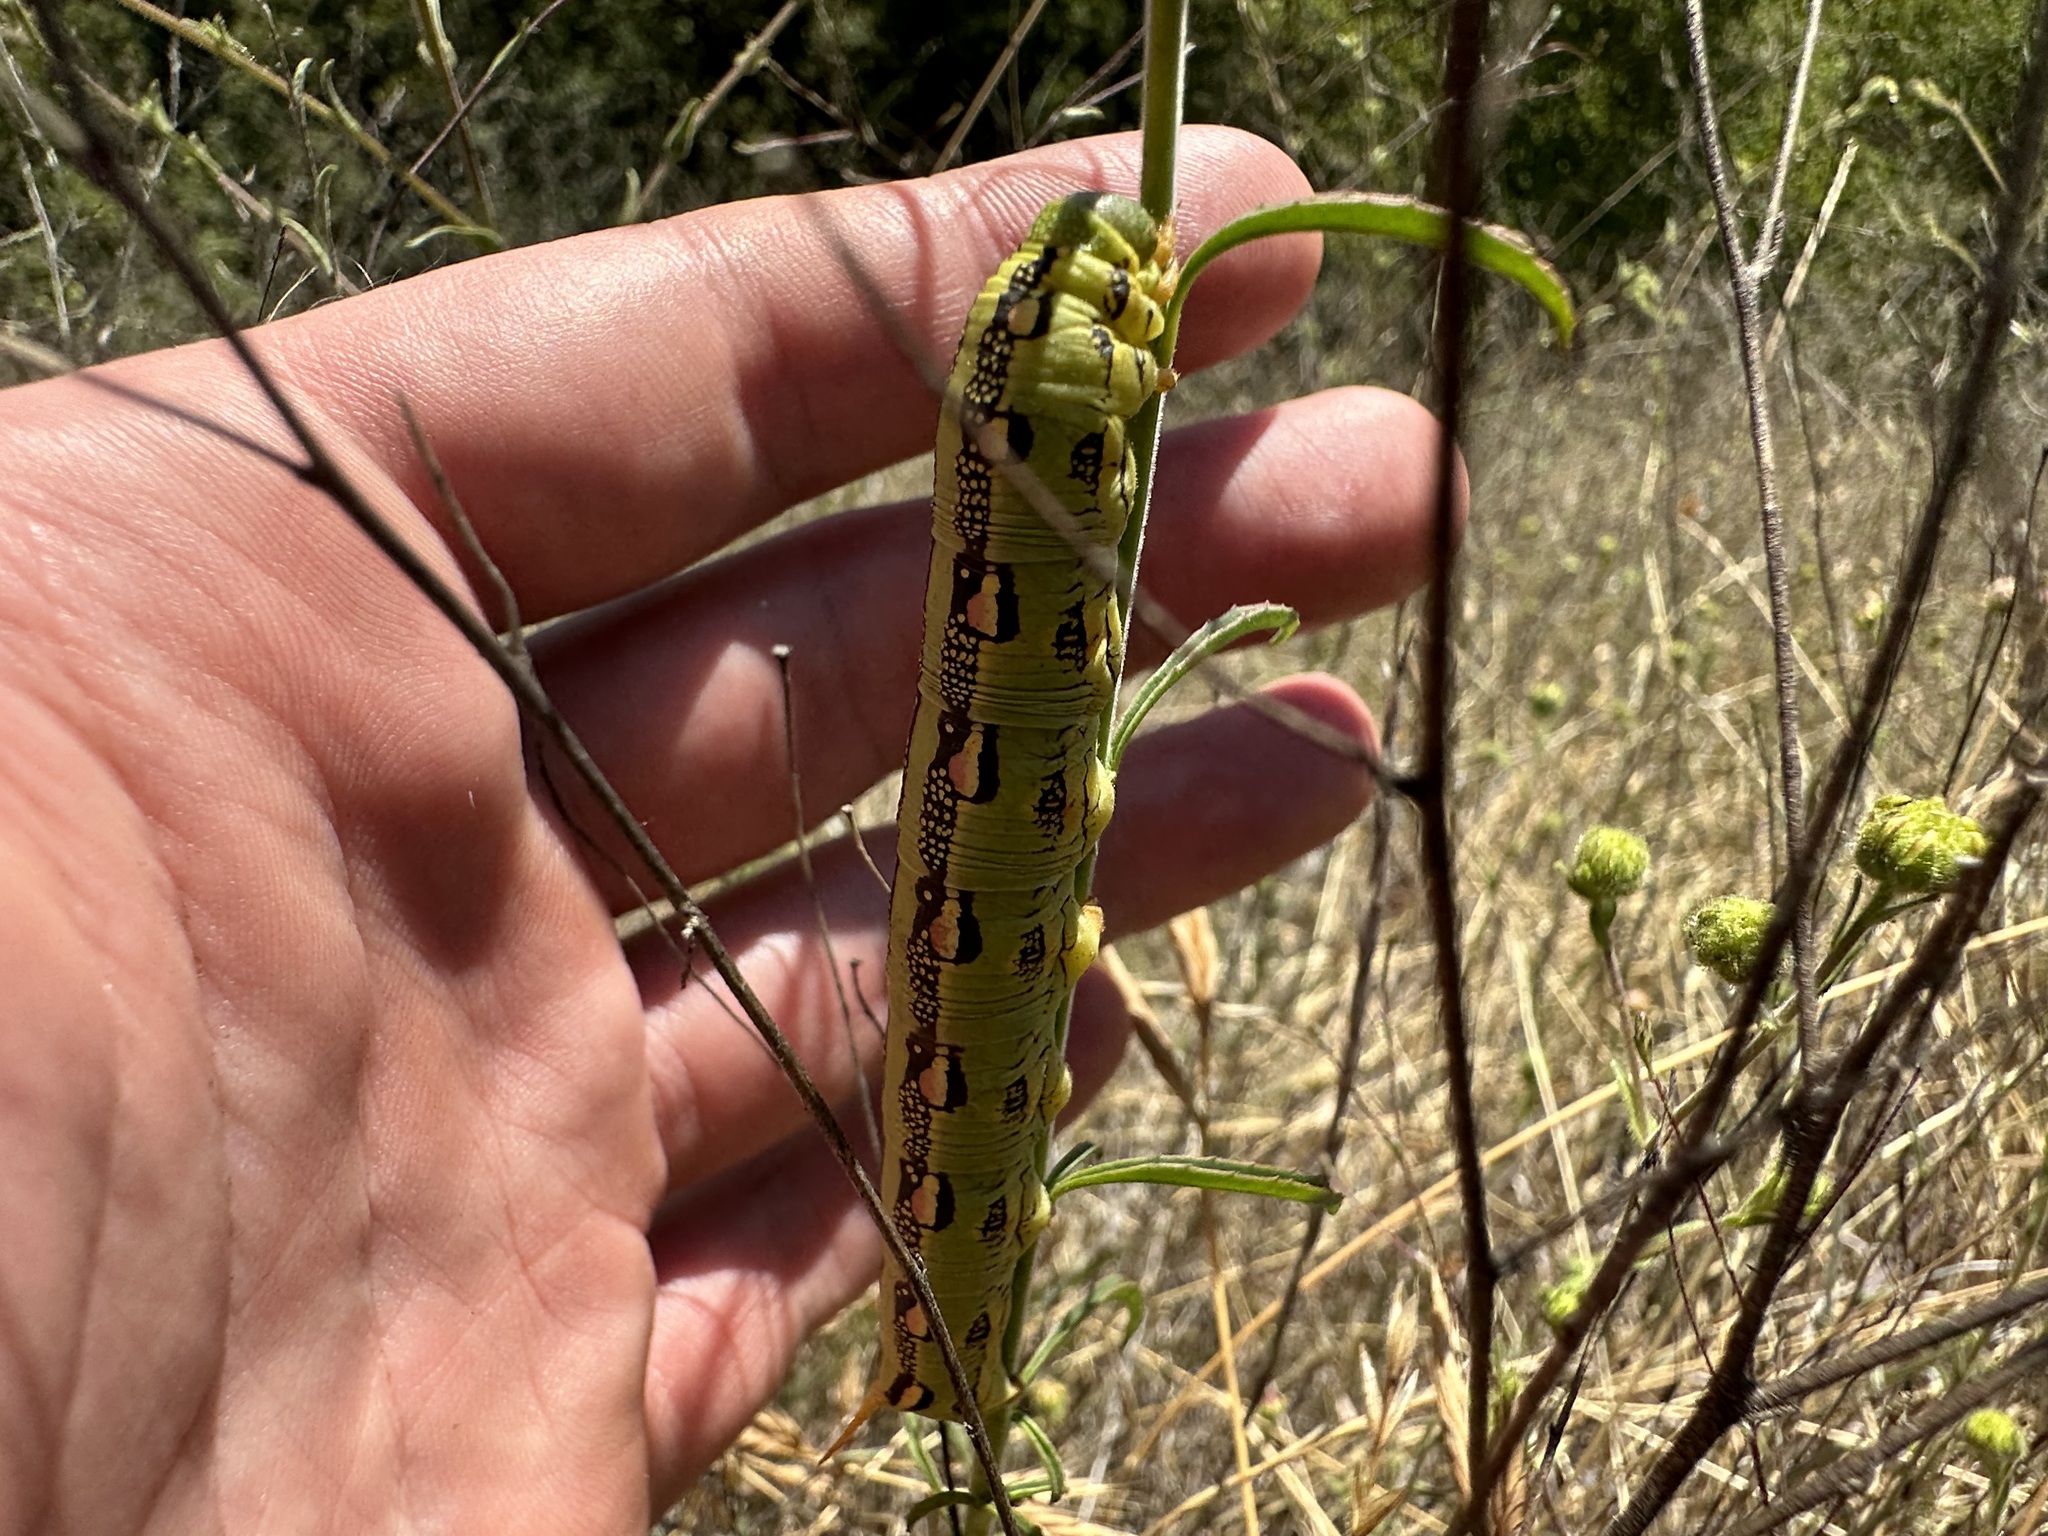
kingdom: Animalia
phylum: Arthropoda
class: Insecta
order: Lepidoptera
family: Sphingidae
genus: Hyles
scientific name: Hyles lineata
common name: White-lined sphinx
